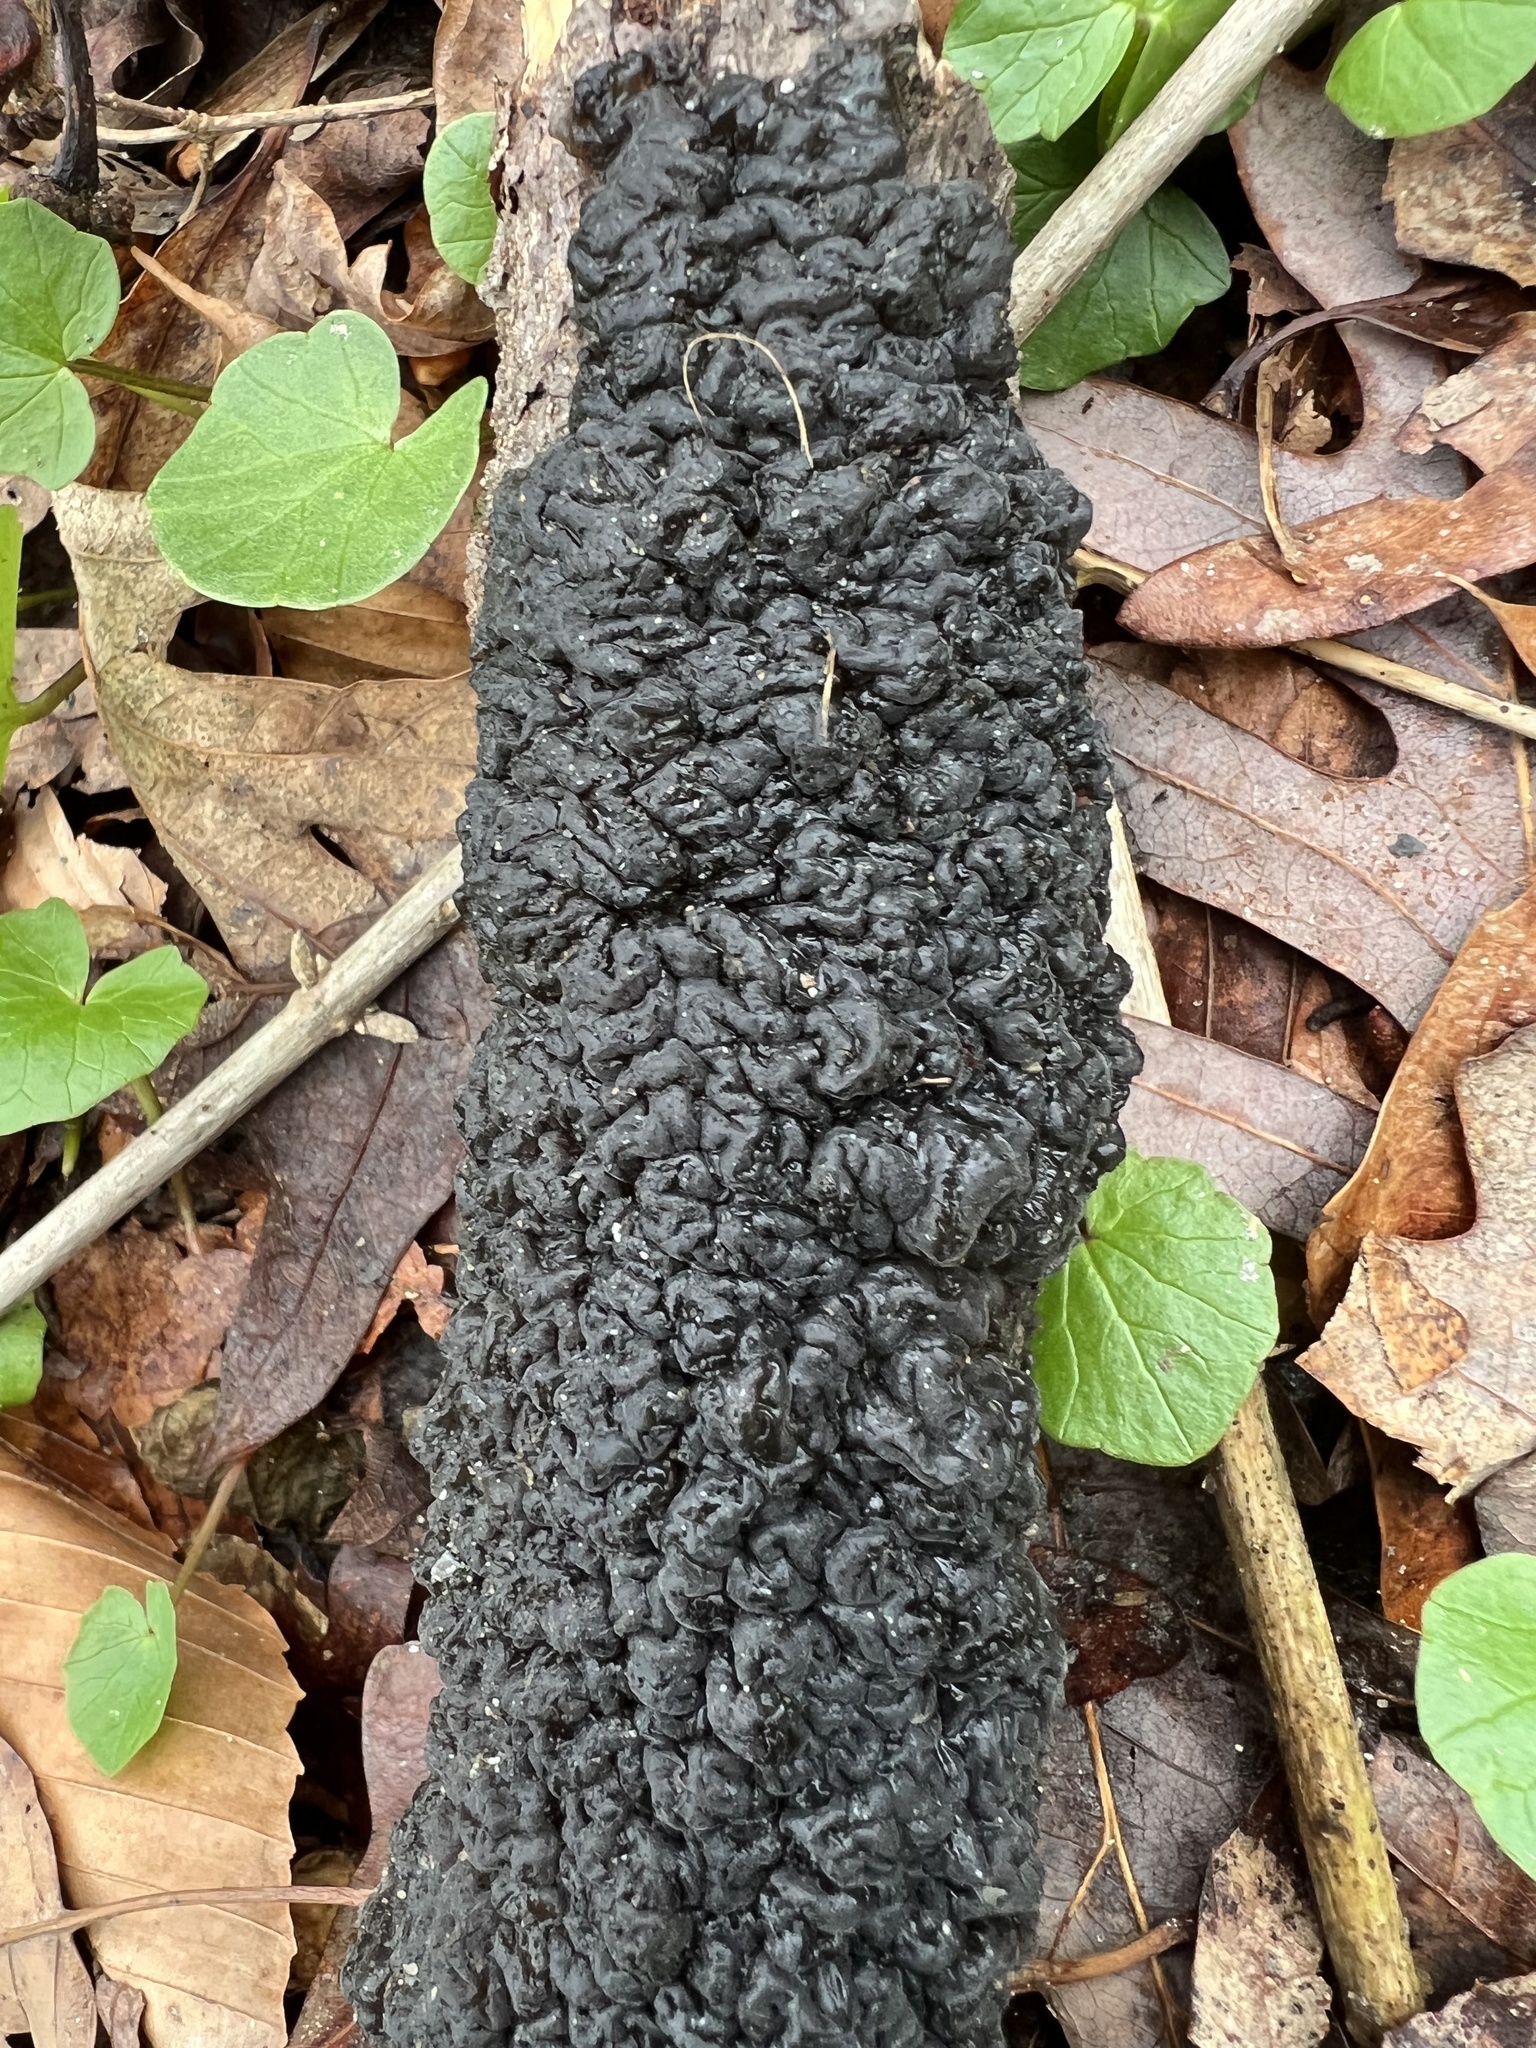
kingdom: Fungi
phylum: Basidiomycota
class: Agaricomycetes
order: Auriculariales
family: Auriculariaceae
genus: Exidia
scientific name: Exidia nigricans
